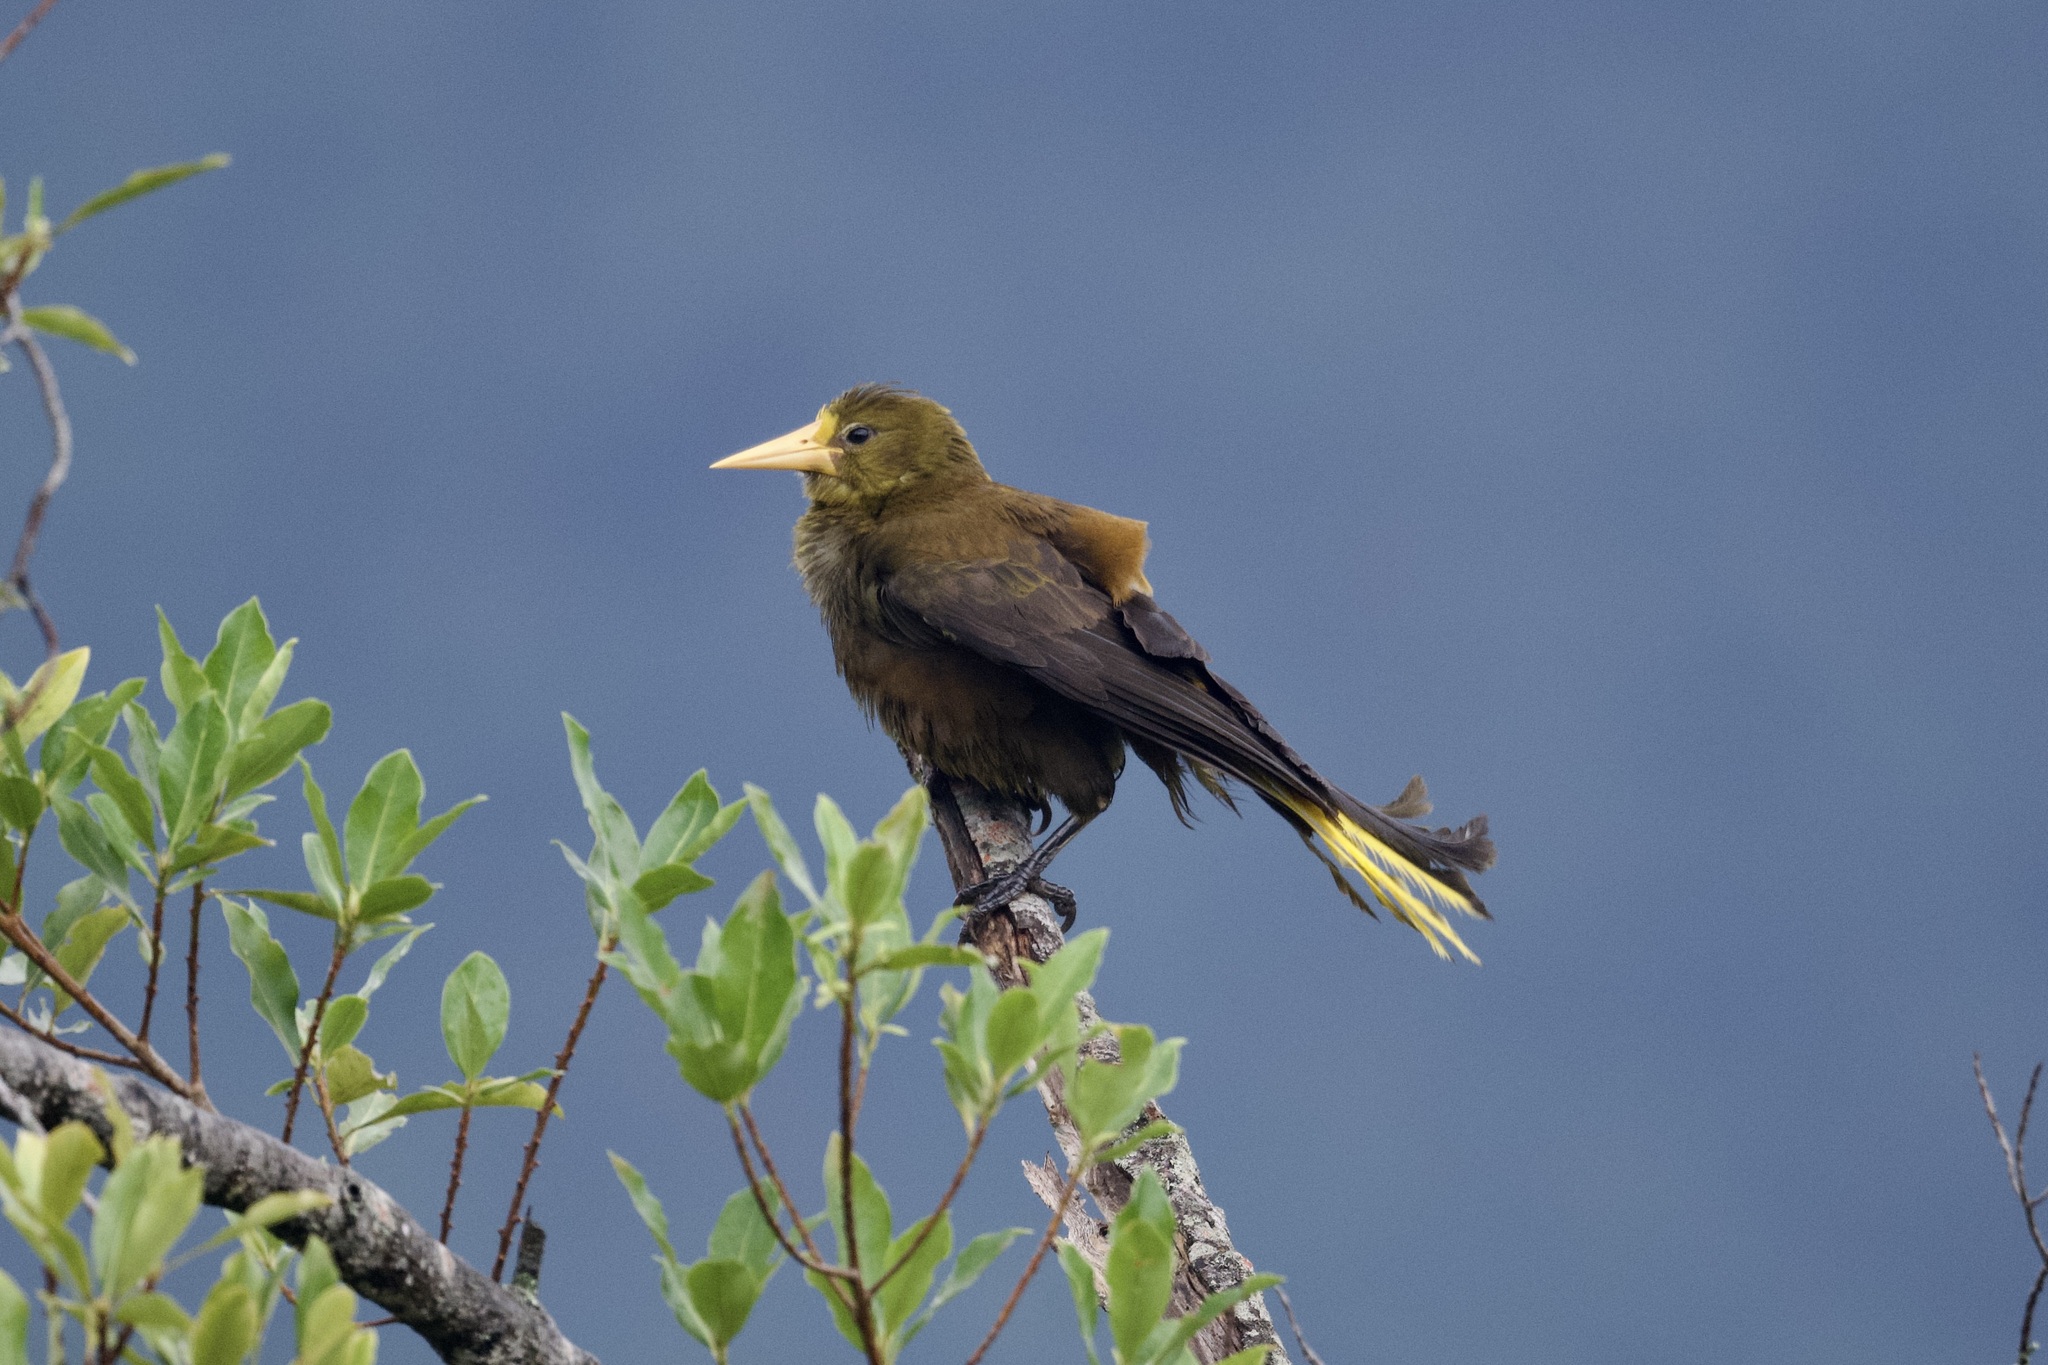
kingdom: Animalia
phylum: Chordata
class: Aves
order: Passeriformes
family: Icteridae
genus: Psarocolius
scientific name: Psarocolius angustifrons
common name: Russet-backed oropendola
